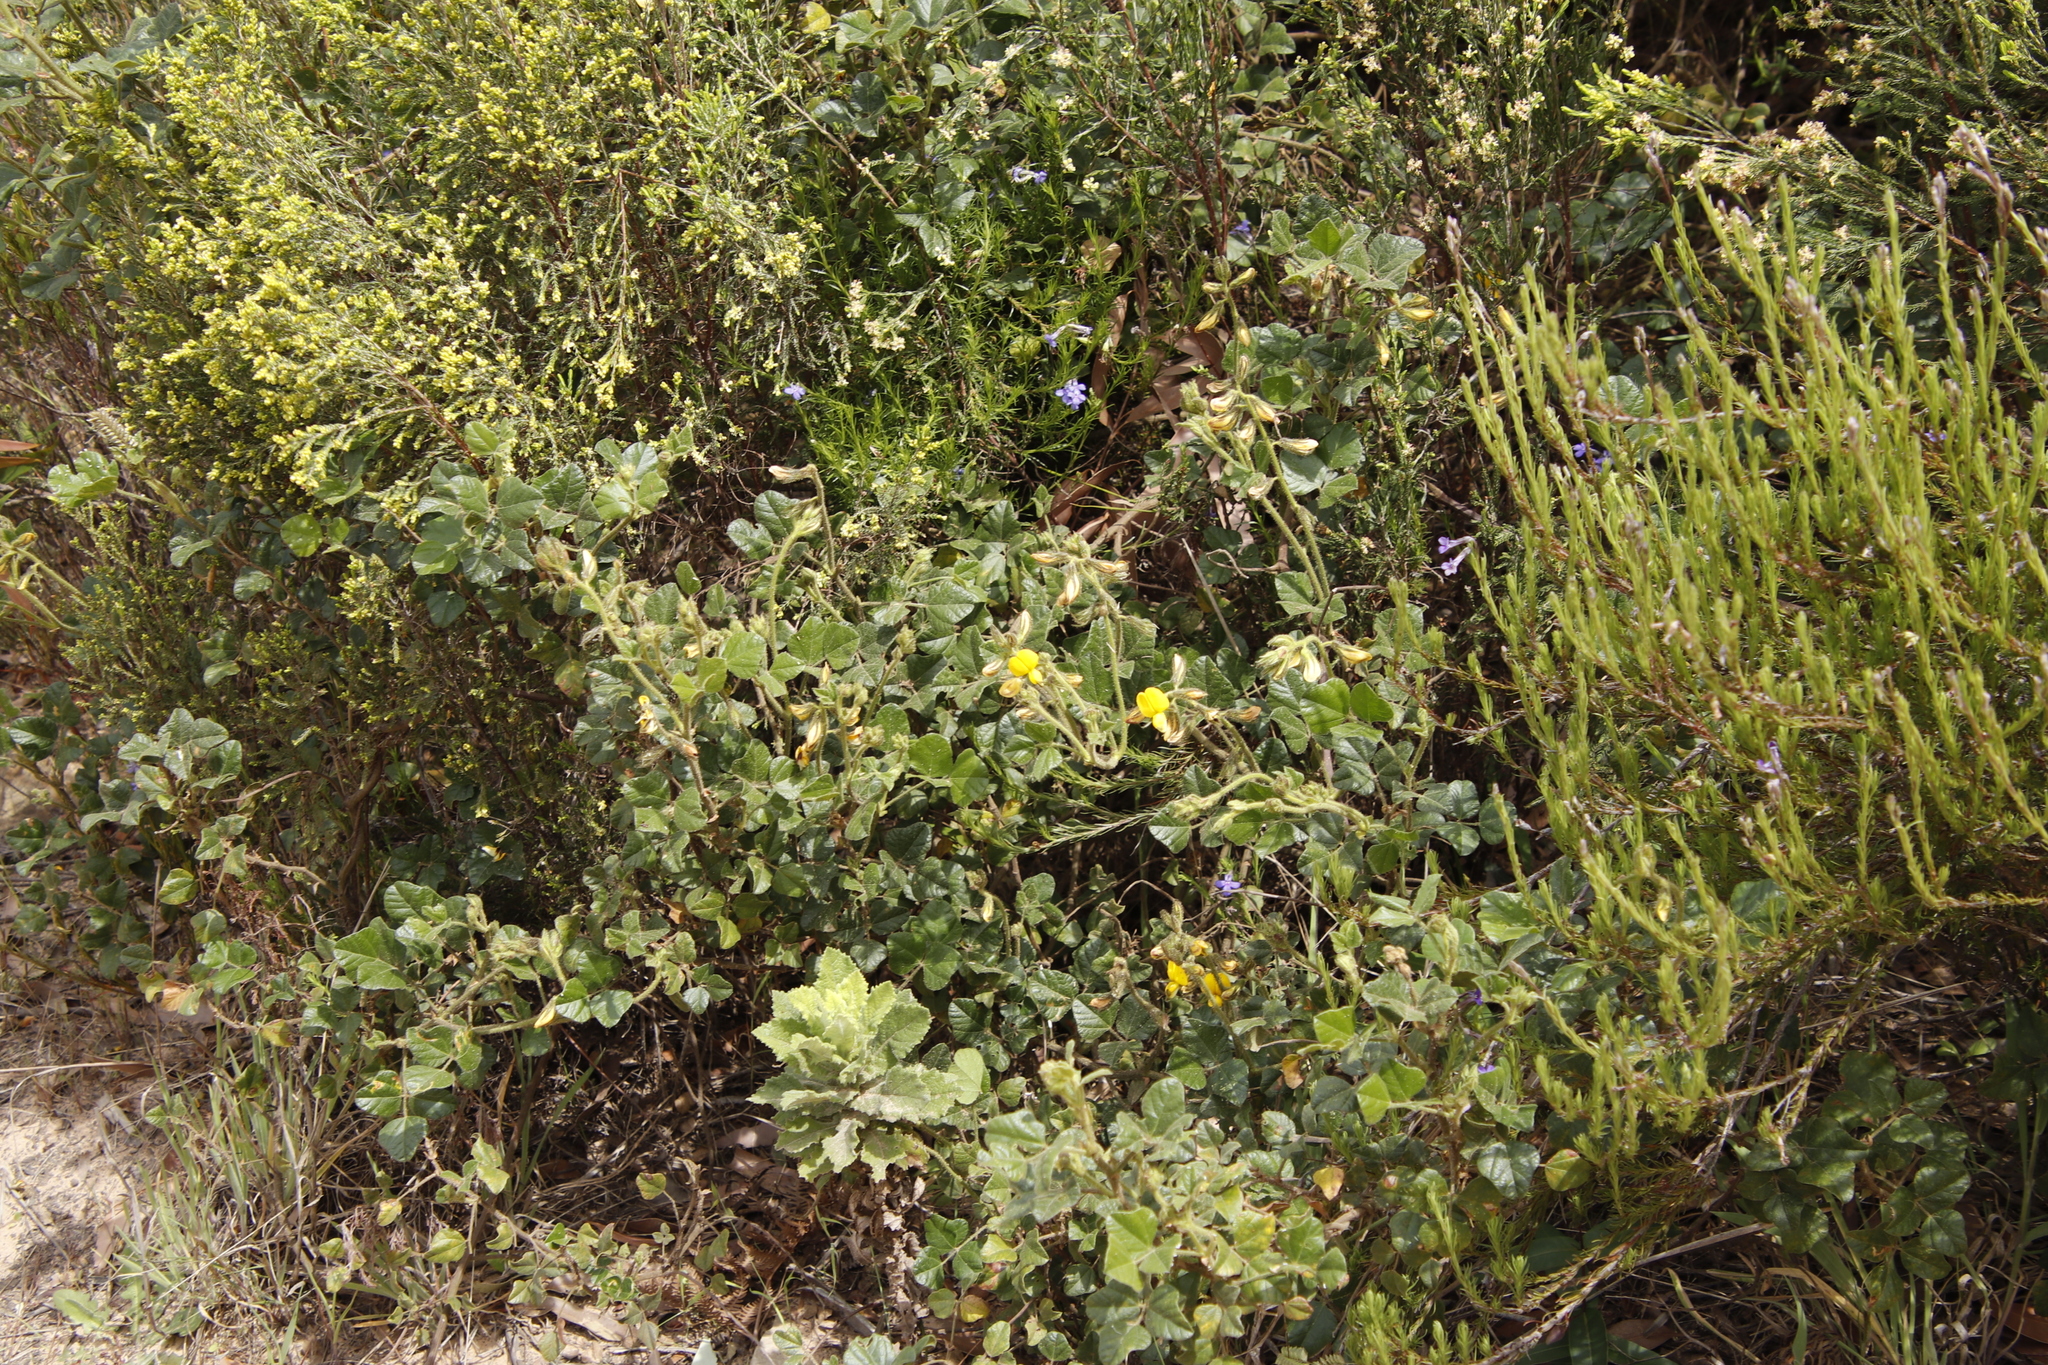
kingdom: Plantae
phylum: Tracheophyta
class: Magnoliopsida
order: Fabales
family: Fabaceae
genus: Bolusafra
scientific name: Bolusafra bituminosa
